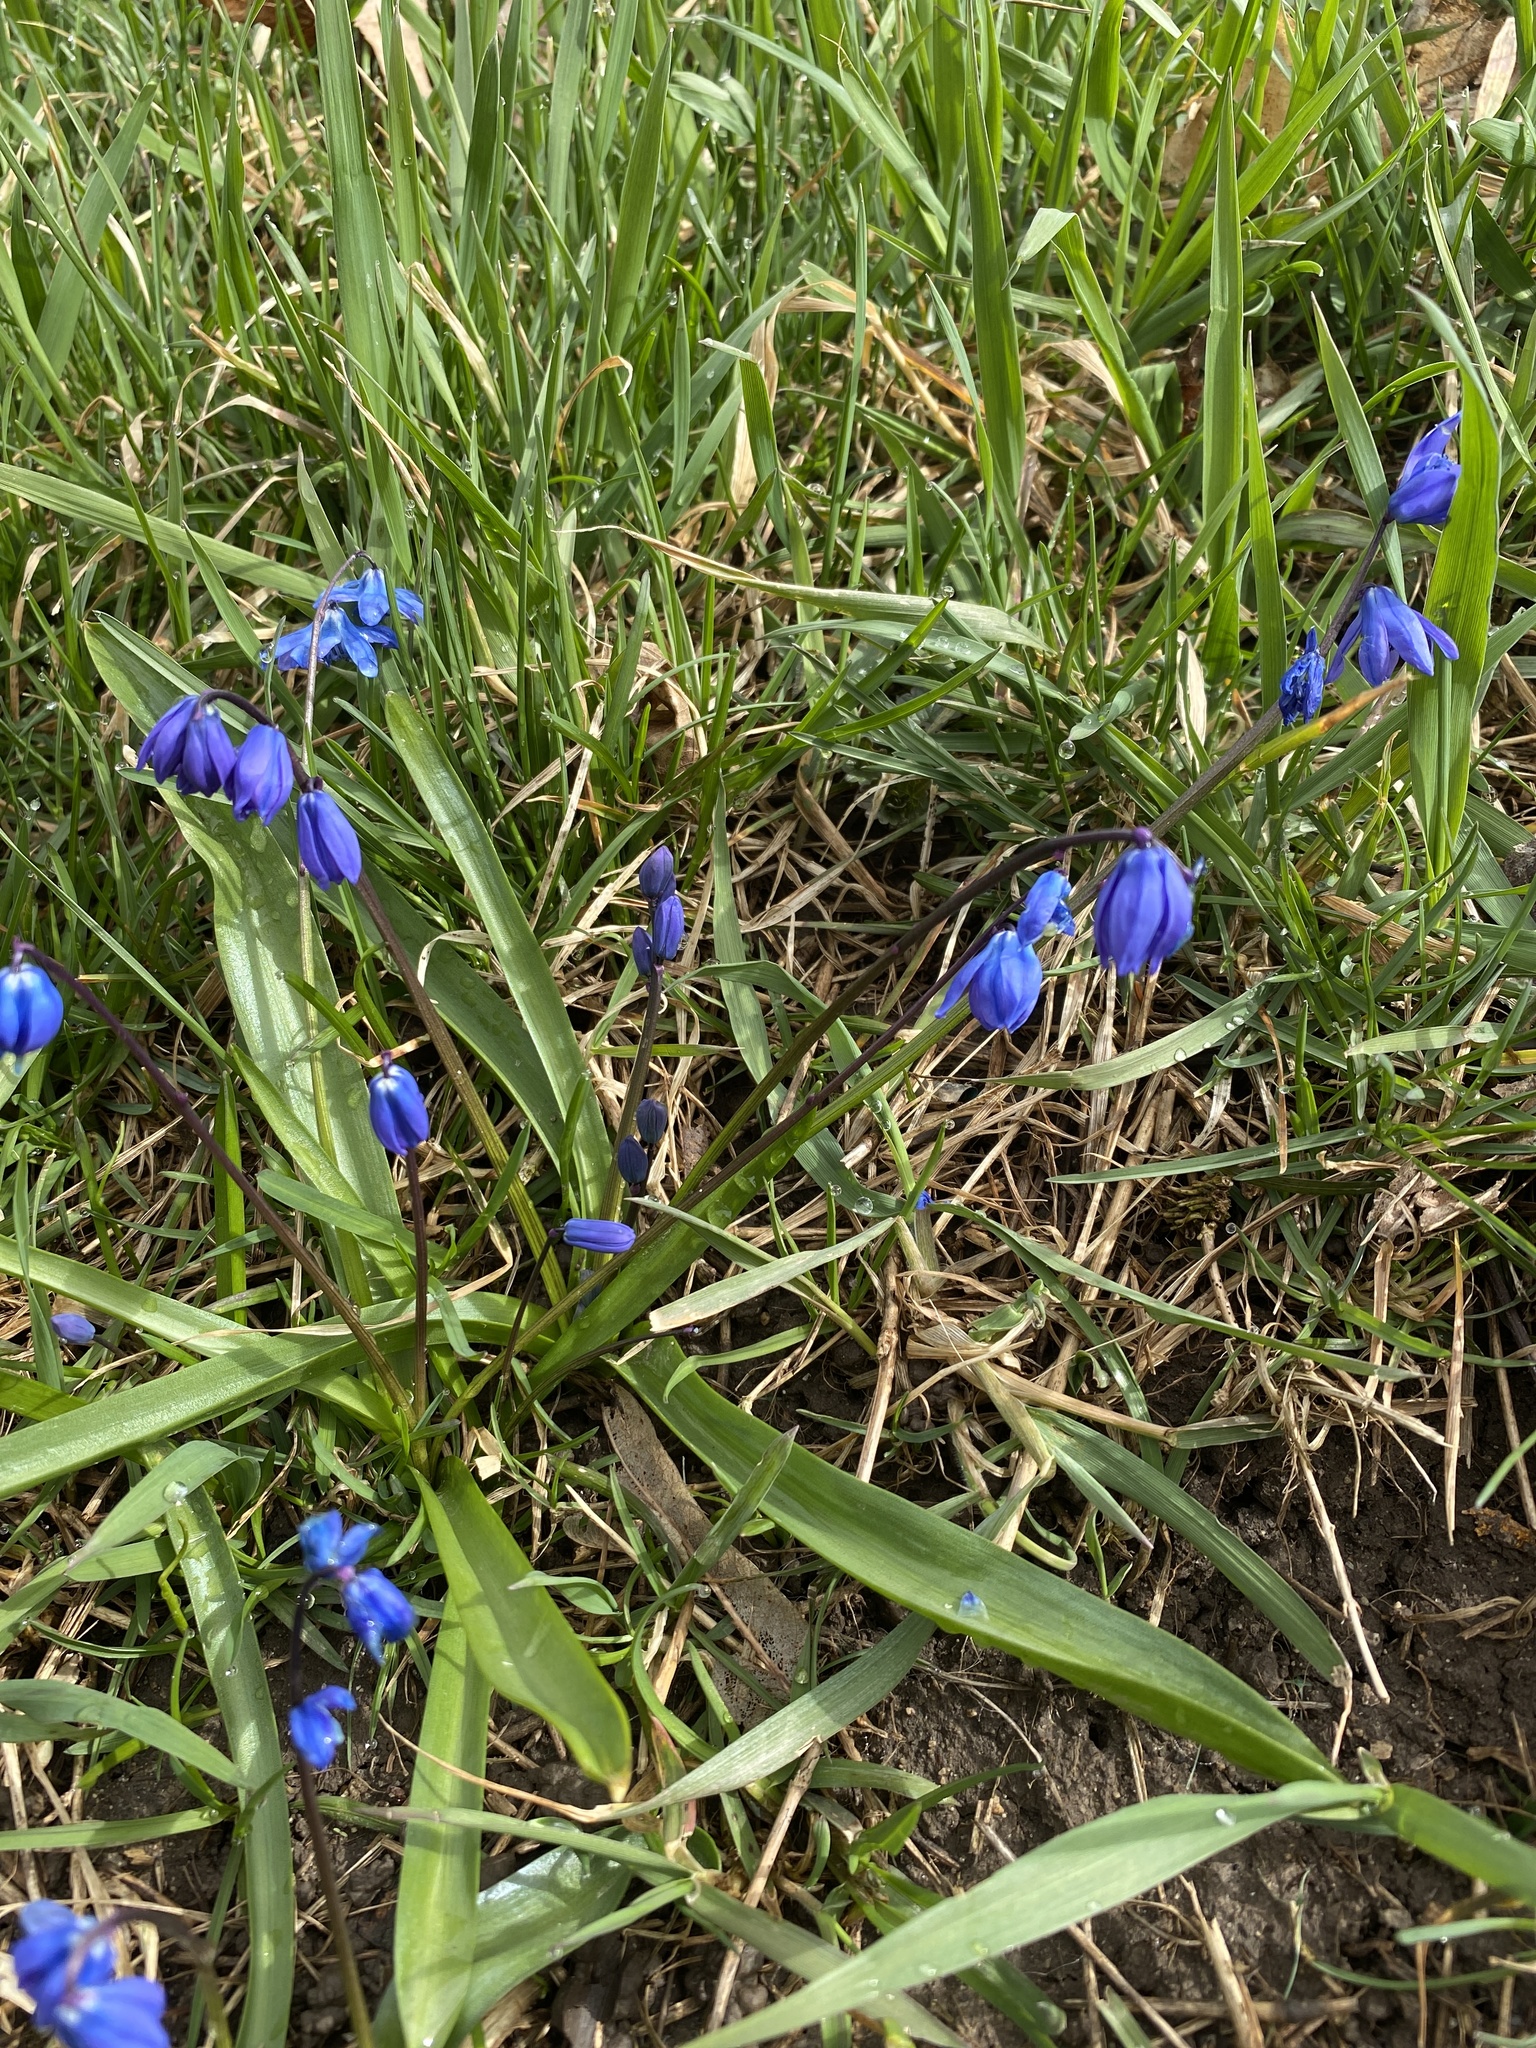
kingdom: Plantae
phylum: Tracheophyta
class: Liliopsida
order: Asparagales
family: Asparagaceae
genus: Scilla
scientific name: Scilla siberica
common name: Siberian squill
